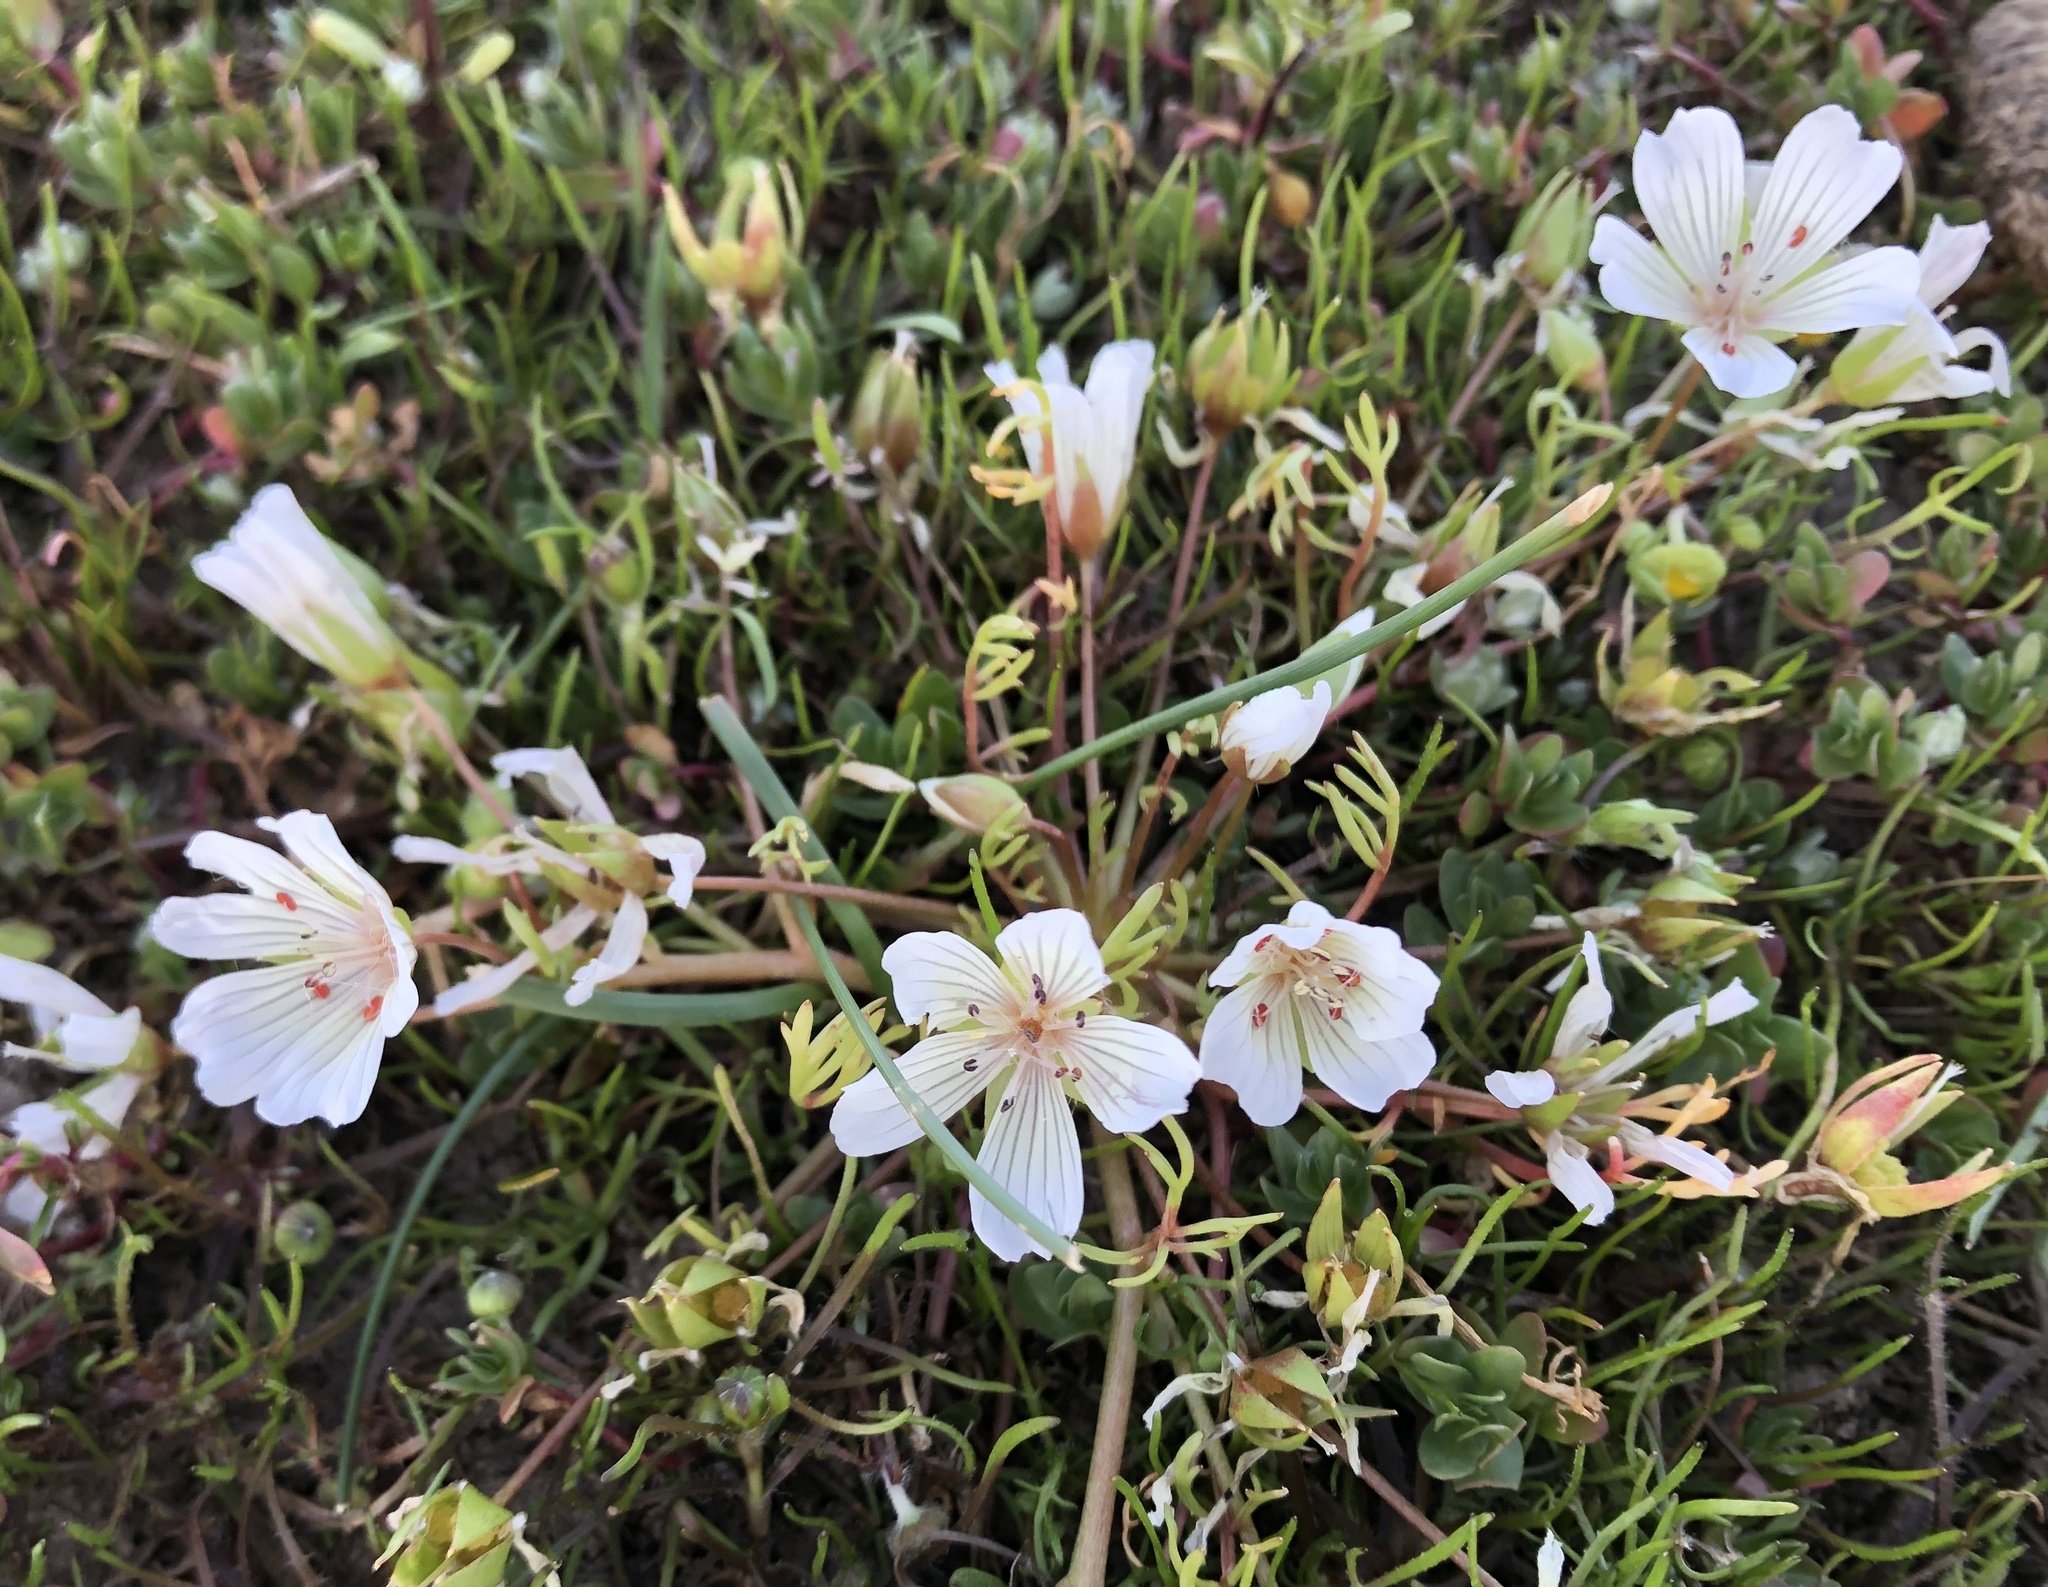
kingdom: Plantae
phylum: Tracheophyta
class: Magnoliopsida
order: Brassicales
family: Limnanthaceae
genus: Limnanthes
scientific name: Limnanthes douglasii
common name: Meadow-foam
